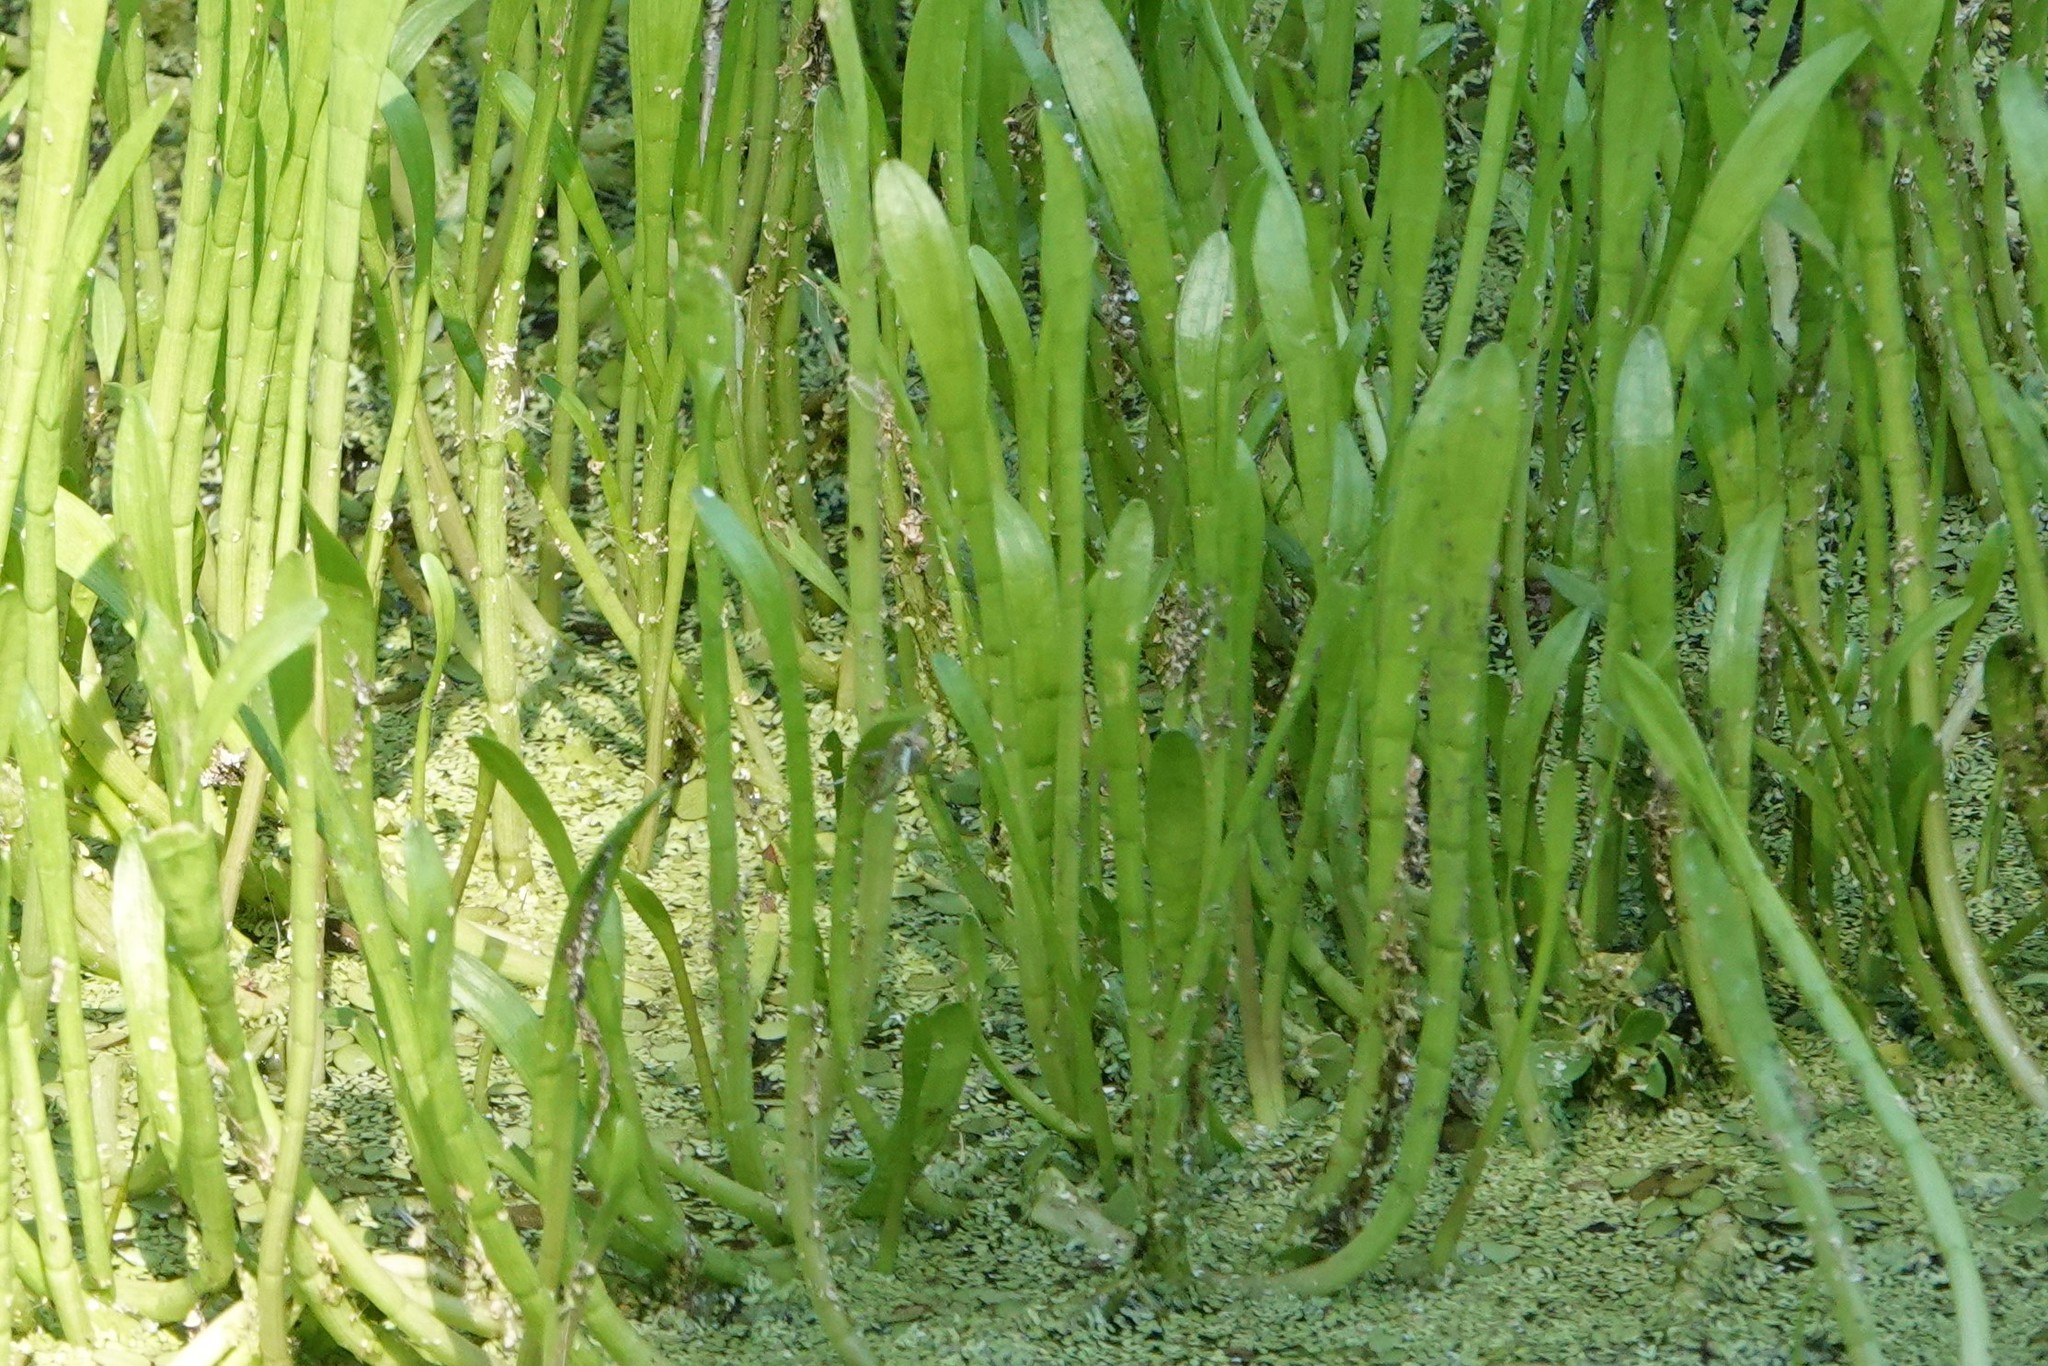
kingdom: Plantae
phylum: Tracheophyta
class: Magnoliopsida
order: Apiales
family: Apiaceae
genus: Lilaeopsis
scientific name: Lilaeopsis carolinensis
